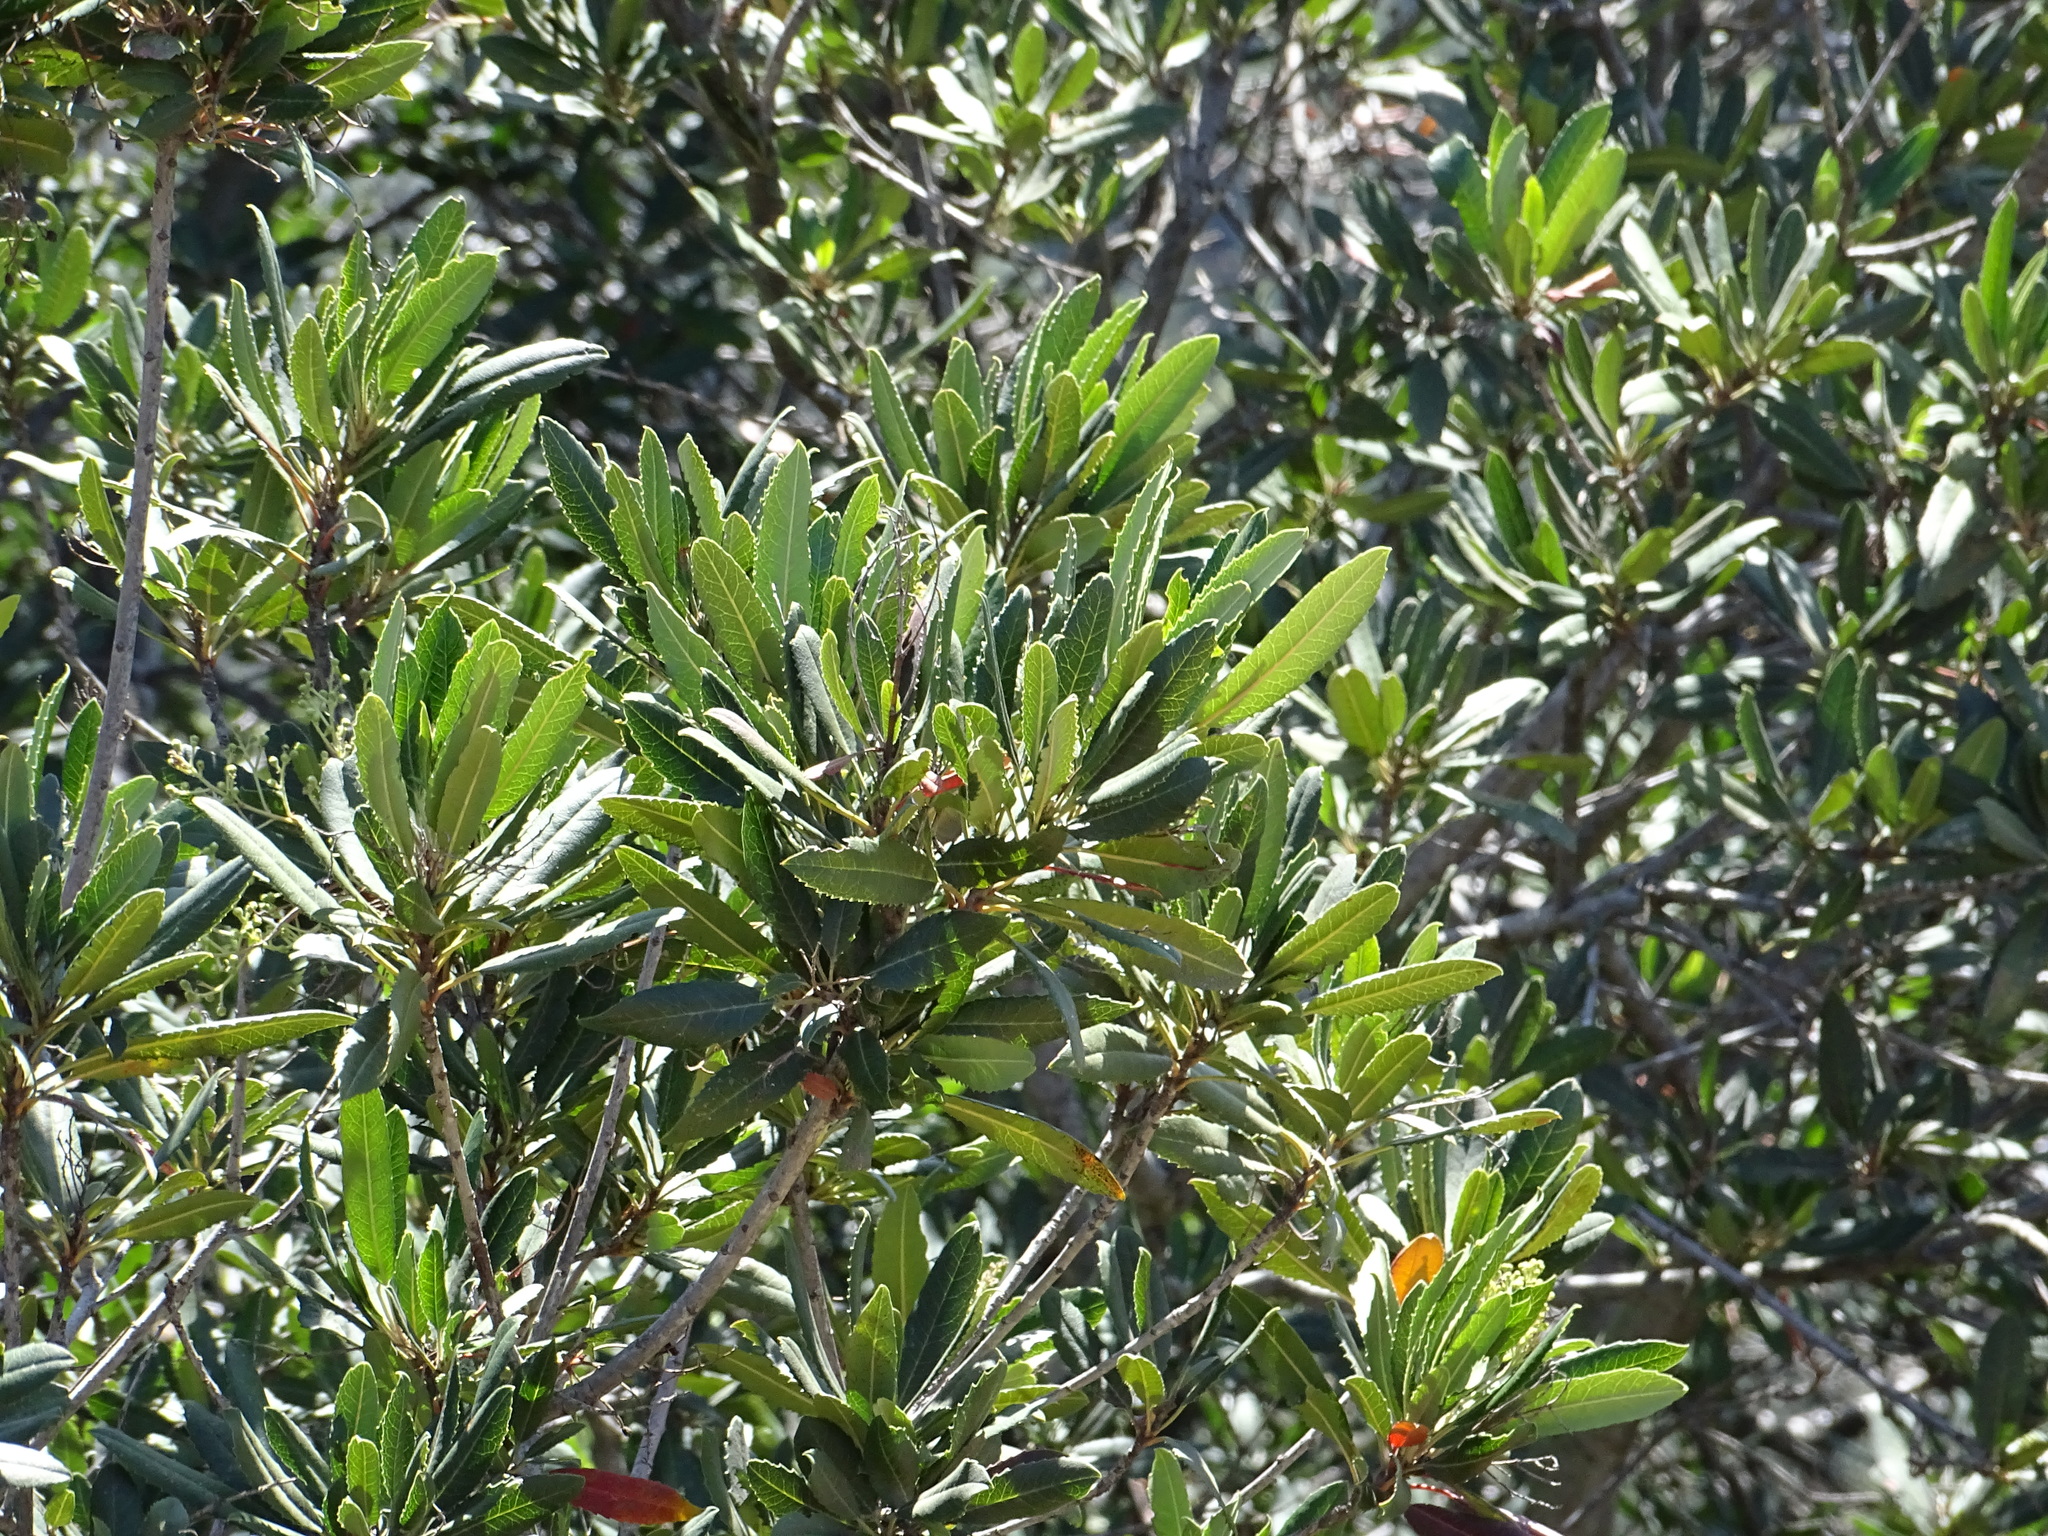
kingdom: Plantae
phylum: Tracheophyta
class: Magnoliopsida
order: Rosales
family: Rosaceae
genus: Heteromeles
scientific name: Heteromeles arbutifolia
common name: California-holly
